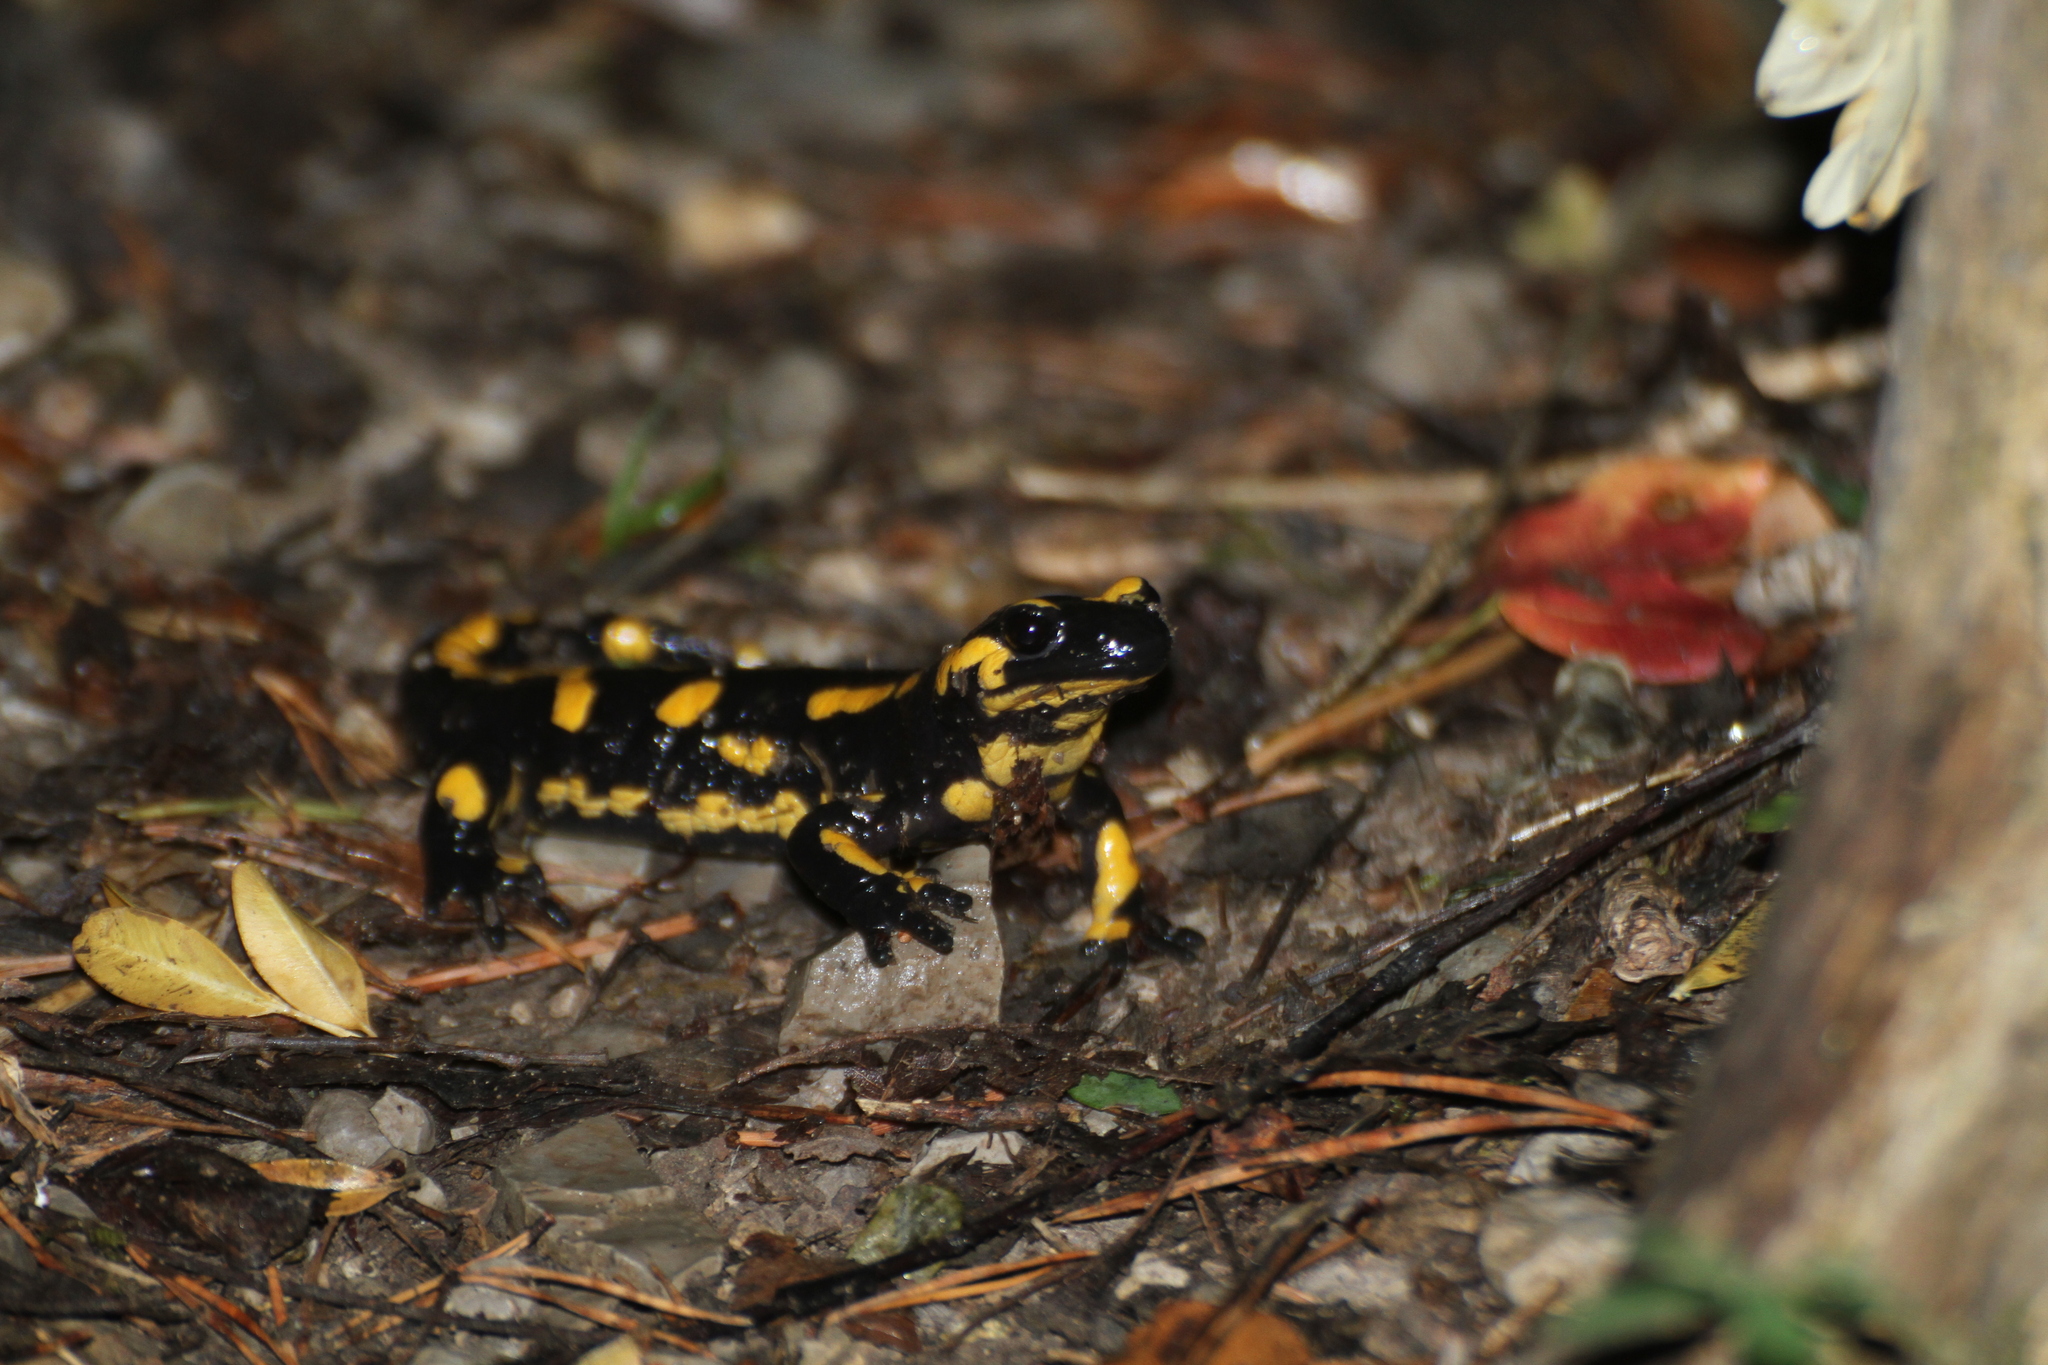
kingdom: Animalia
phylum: Chordata
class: Amphibia
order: Caudata
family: Salamandridae
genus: Salamandra
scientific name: Salamandra salamandra
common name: Fire salamander
